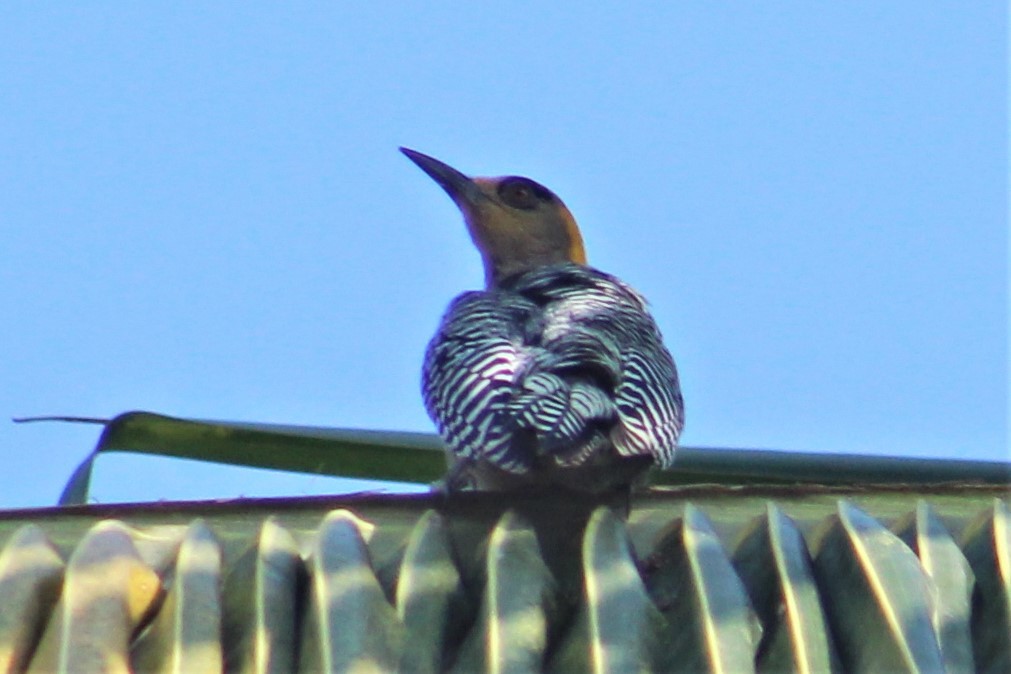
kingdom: Animalia
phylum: Chordata
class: Aves
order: Piciformes
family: Picidae
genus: Melanerpes
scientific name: Melanerpes chrysogenys
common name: Golden-cheeked woodpecker
